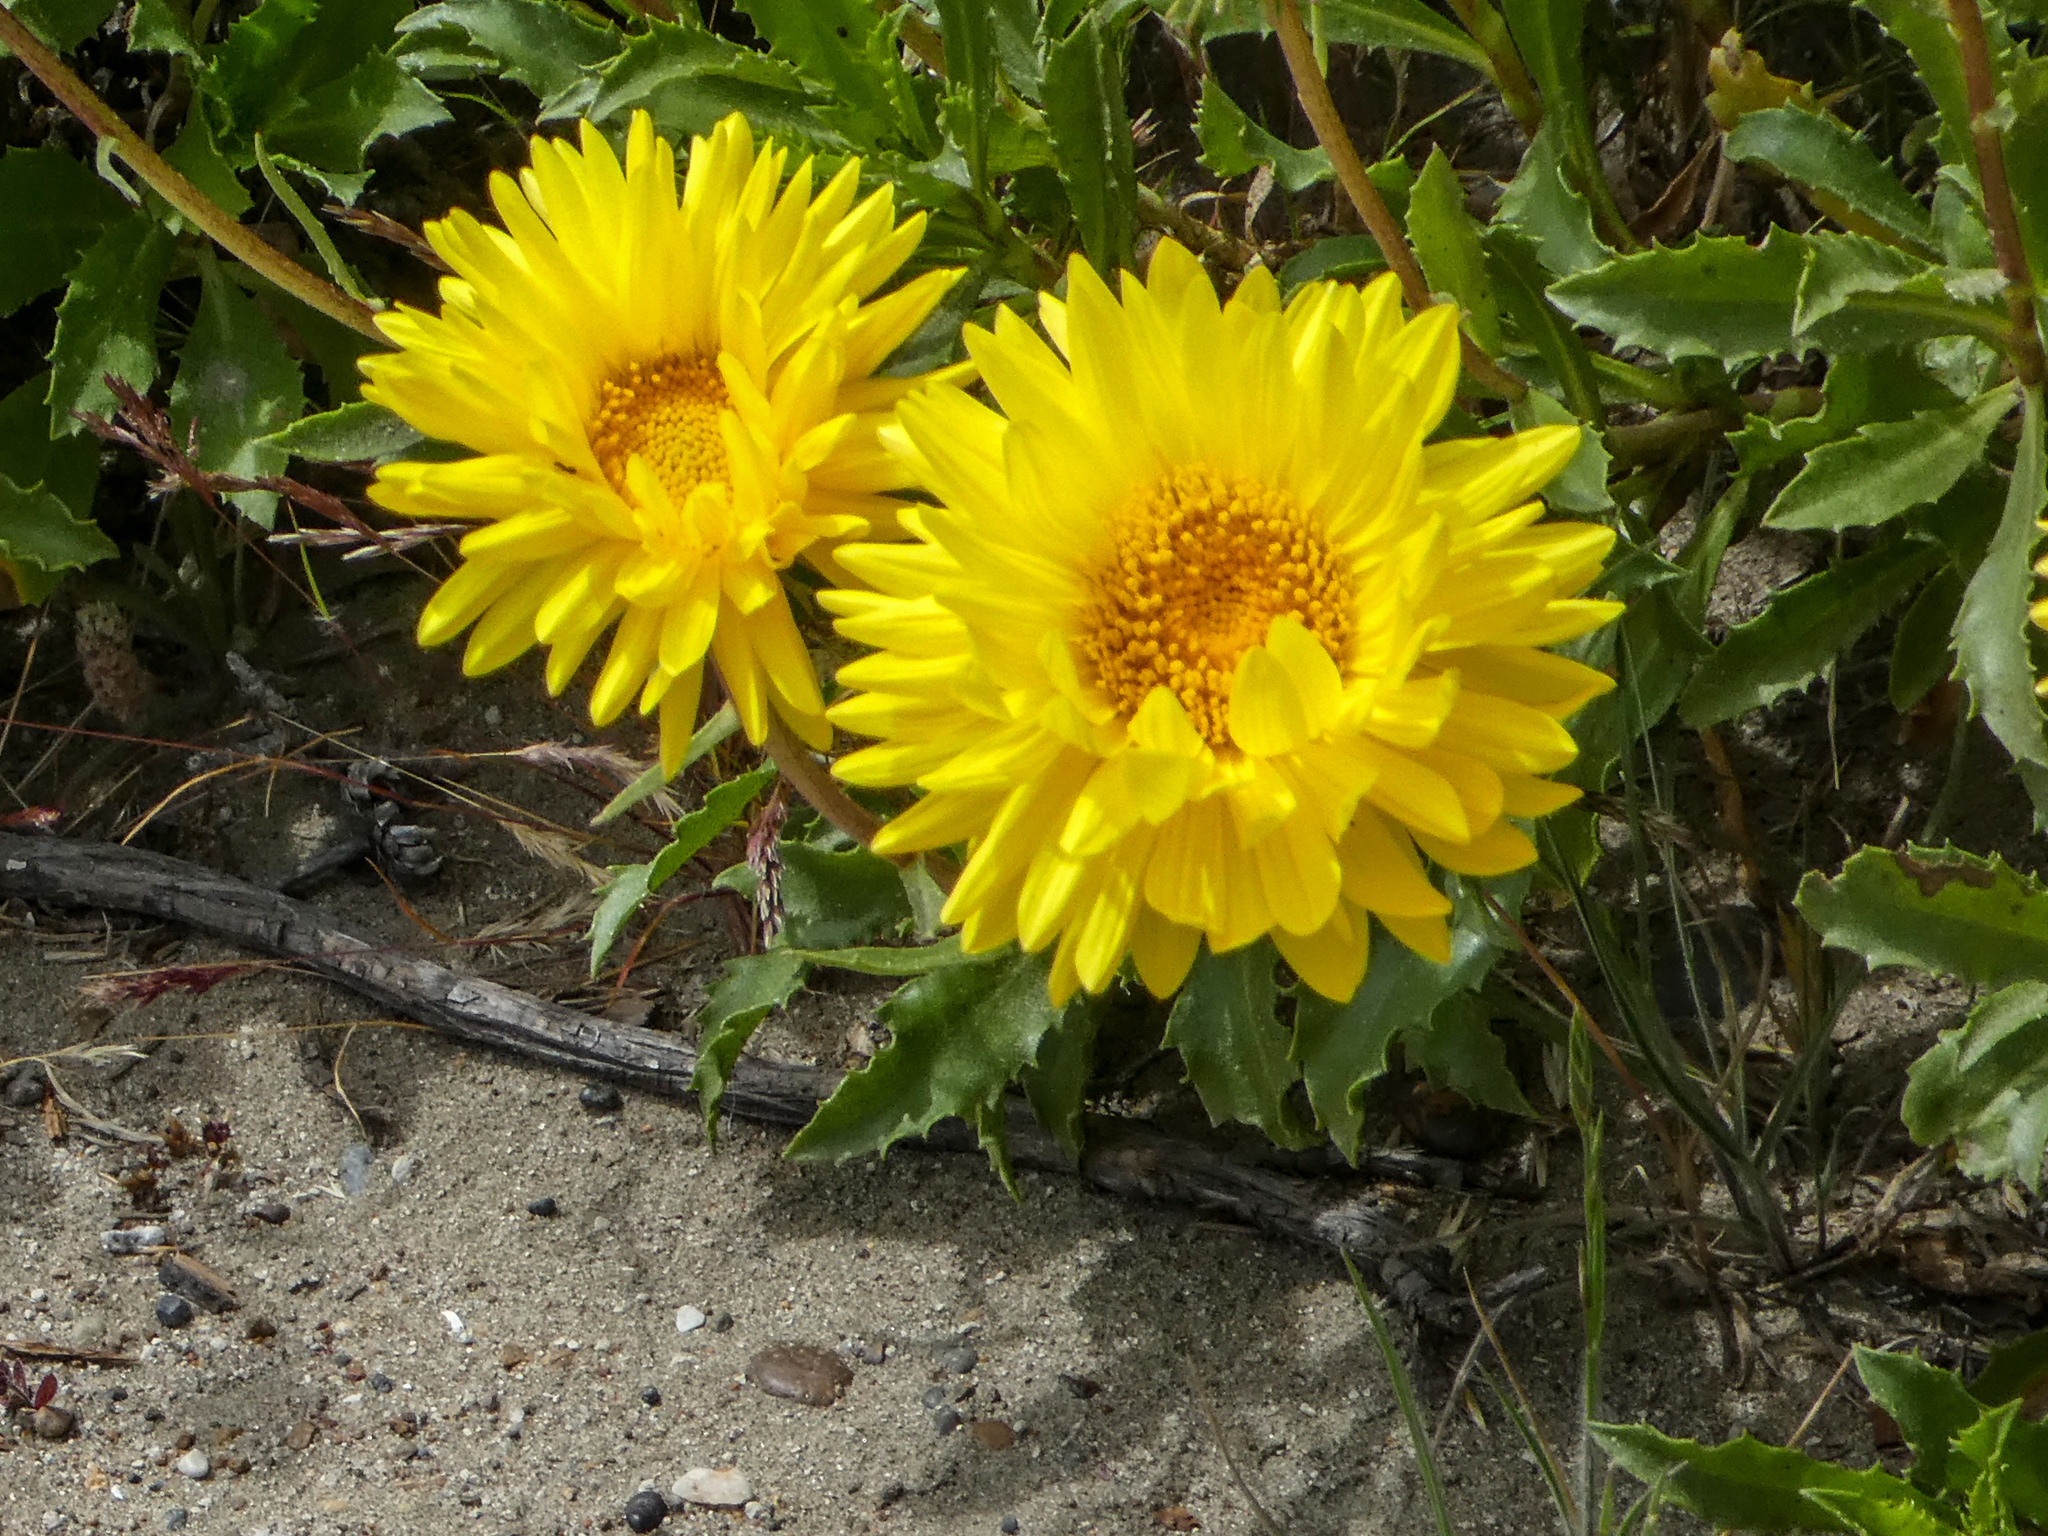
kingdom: Plantae
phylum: Tracheophyta
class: Magnoliopsida
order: Asterales
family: Asteraceae
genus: Grindelia
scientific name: Grindelia chiloensis
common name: Shrubby gumweed
